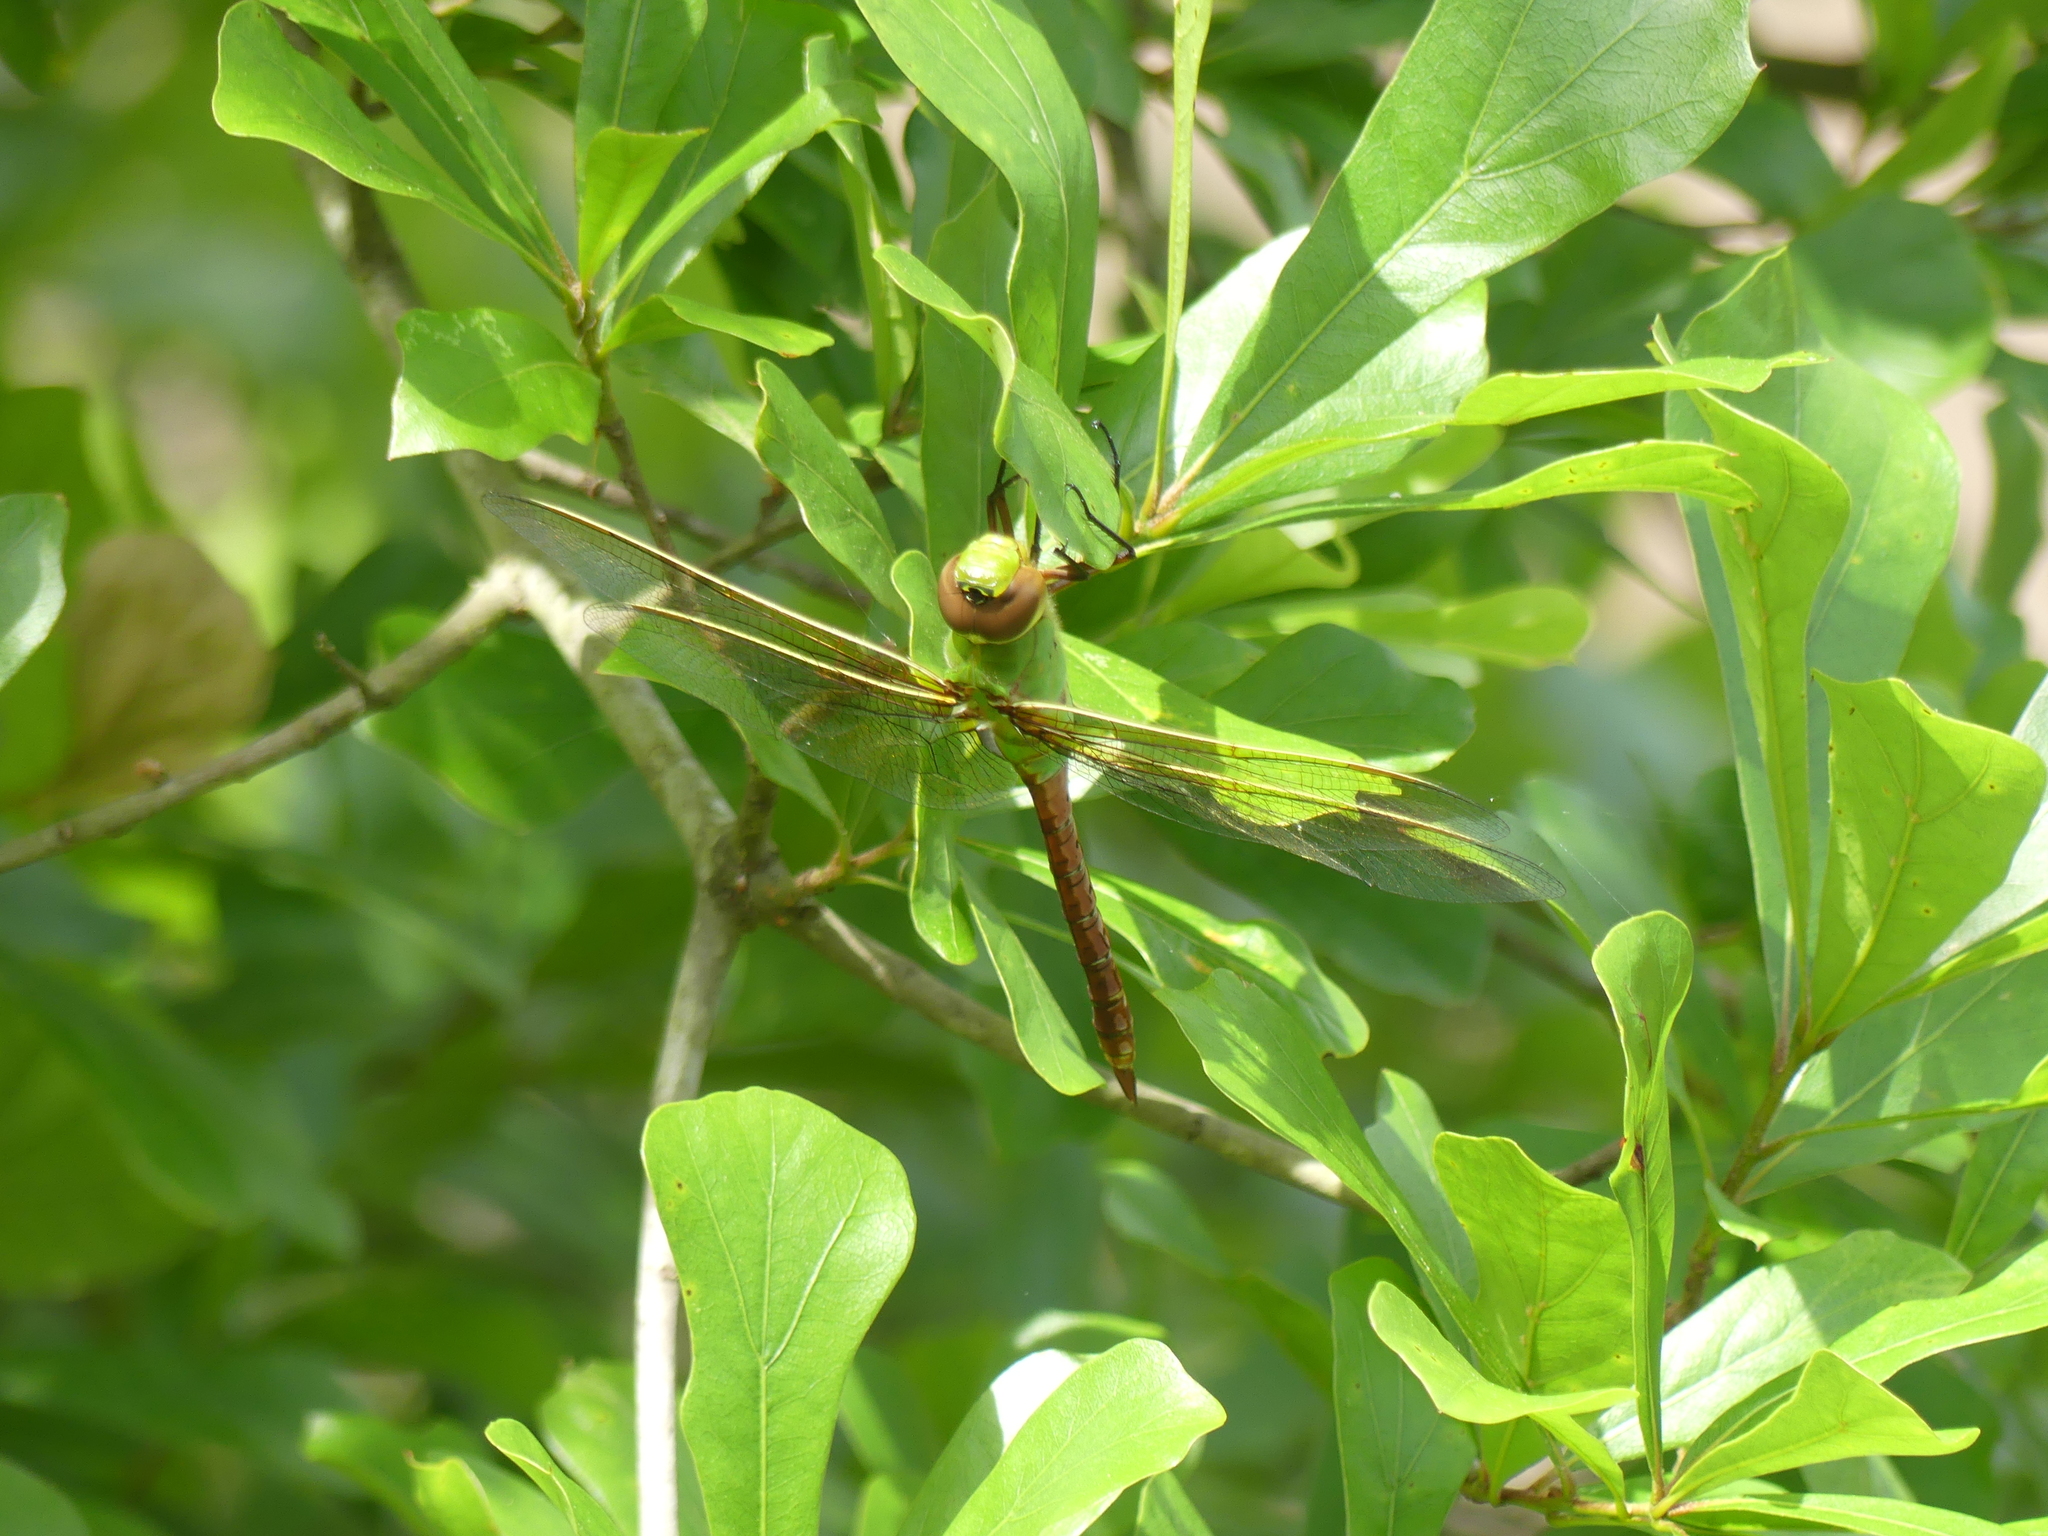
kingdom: Animalia
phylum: Arthropoda
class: Insecta
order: Odonata
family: Aeshnidae
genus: Anax
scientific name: Anax junius
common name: Common green darner
